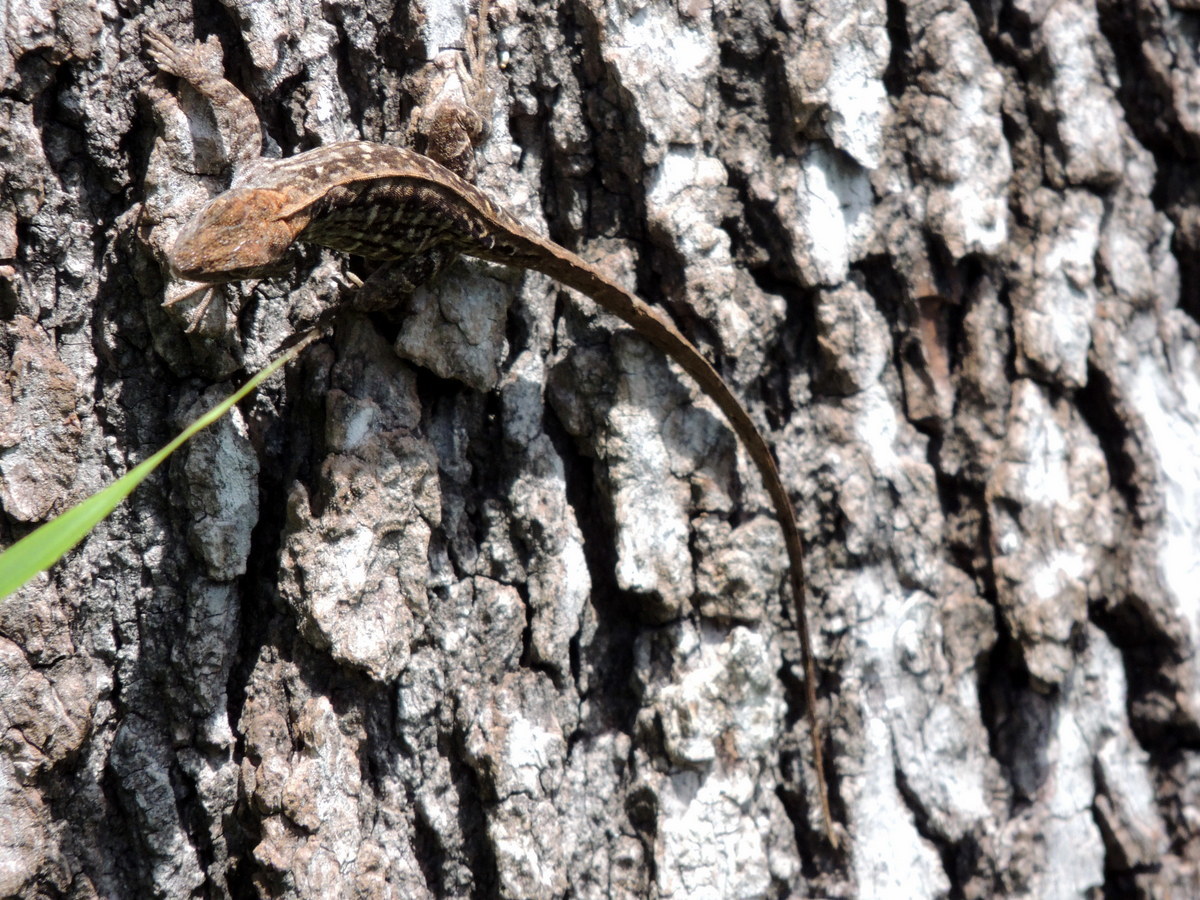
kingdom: Animalia
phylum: Chordata
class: Squamata
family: Dactyloidae
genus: Anolis
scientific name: Anolis sagrei
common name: Brown anole
